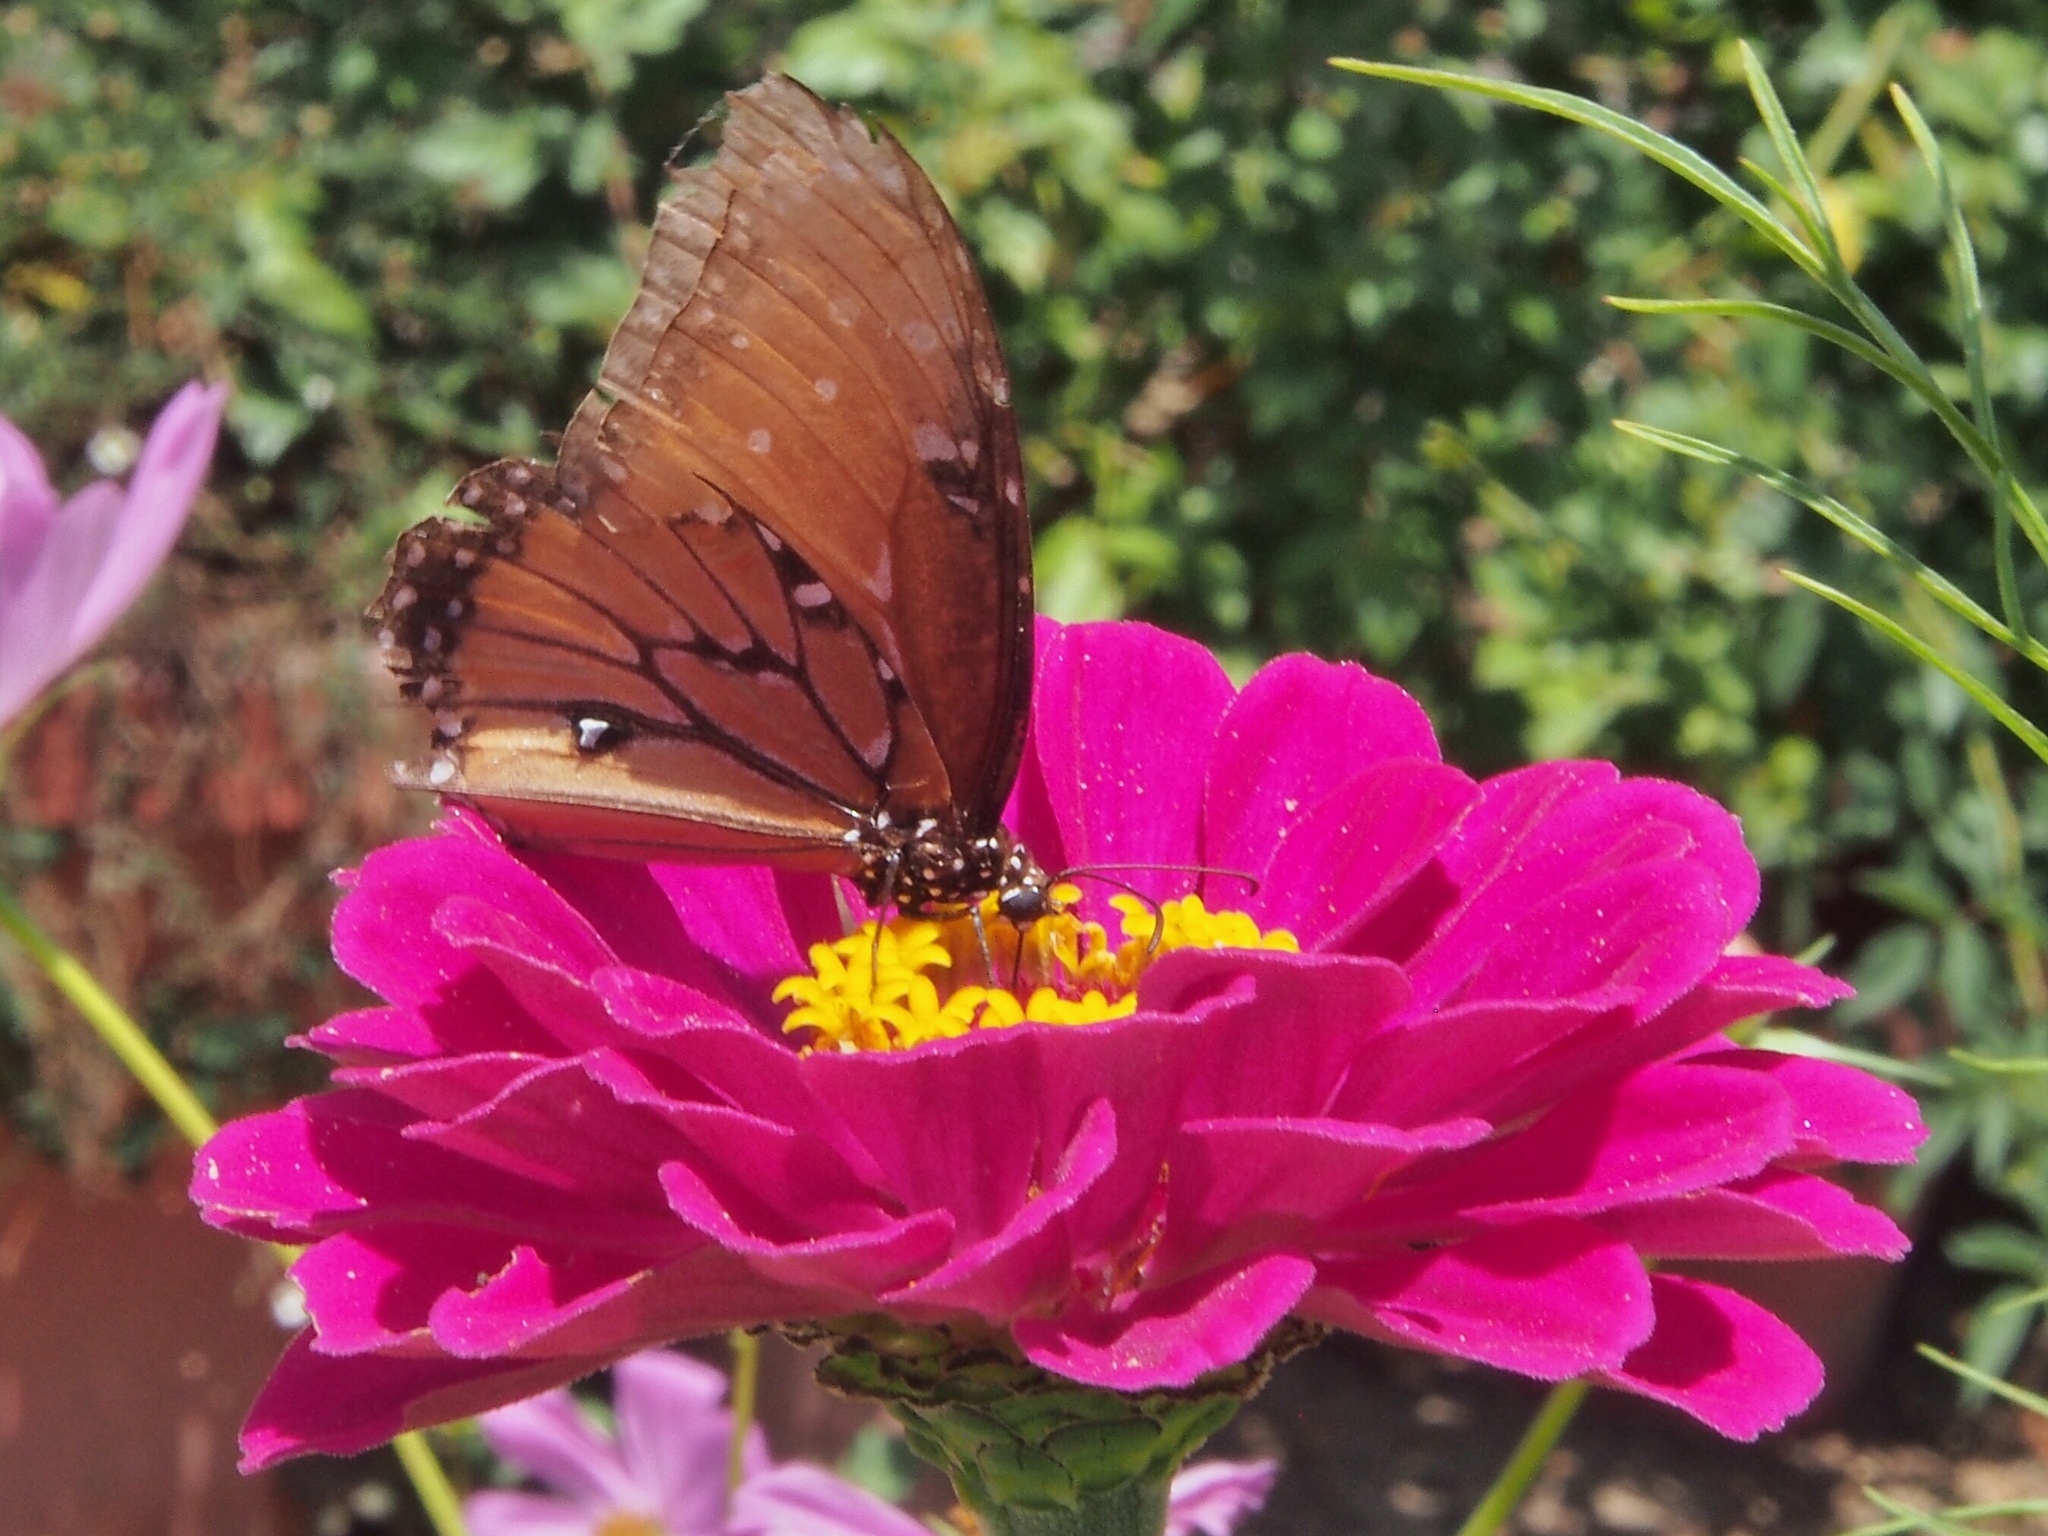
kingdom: Animalia
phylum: Arthropoda
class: Insecta
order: Lepidoptera
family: Nymphalidae
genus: Danaus
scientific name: Danaus gilippus
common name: Queen
